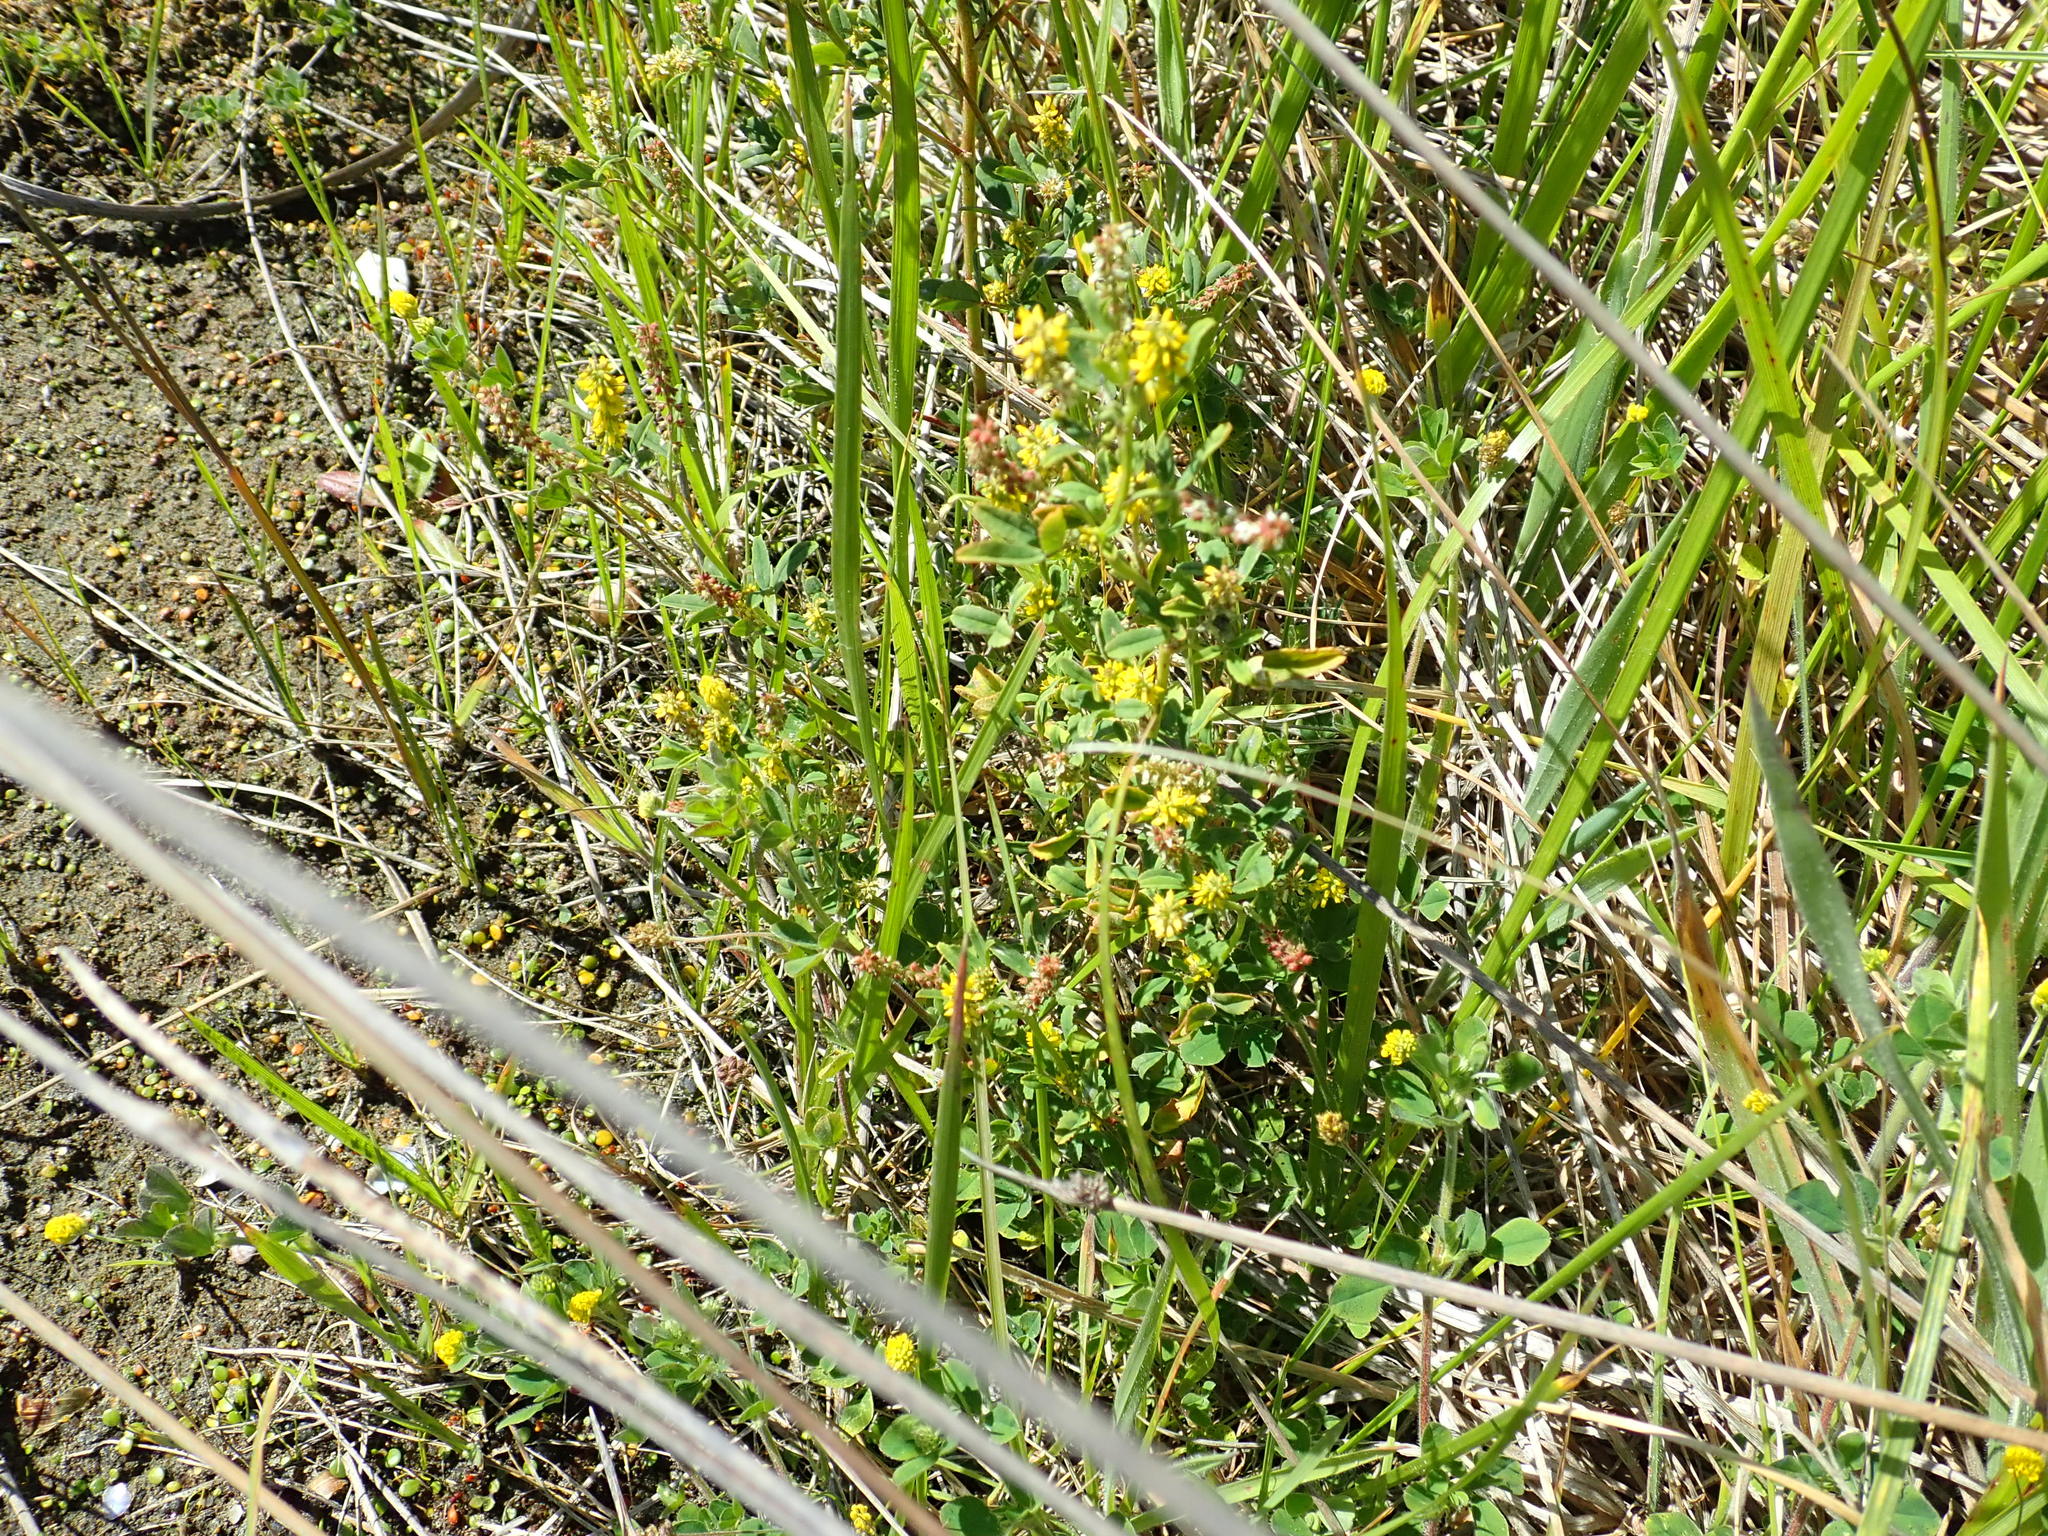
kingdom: Plantae
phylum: Tracheophyta
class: Magnoliopsida
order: Fabales
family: Fabaceae
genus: Melilotus
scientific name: Melilotus indicus
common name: Small melilot
